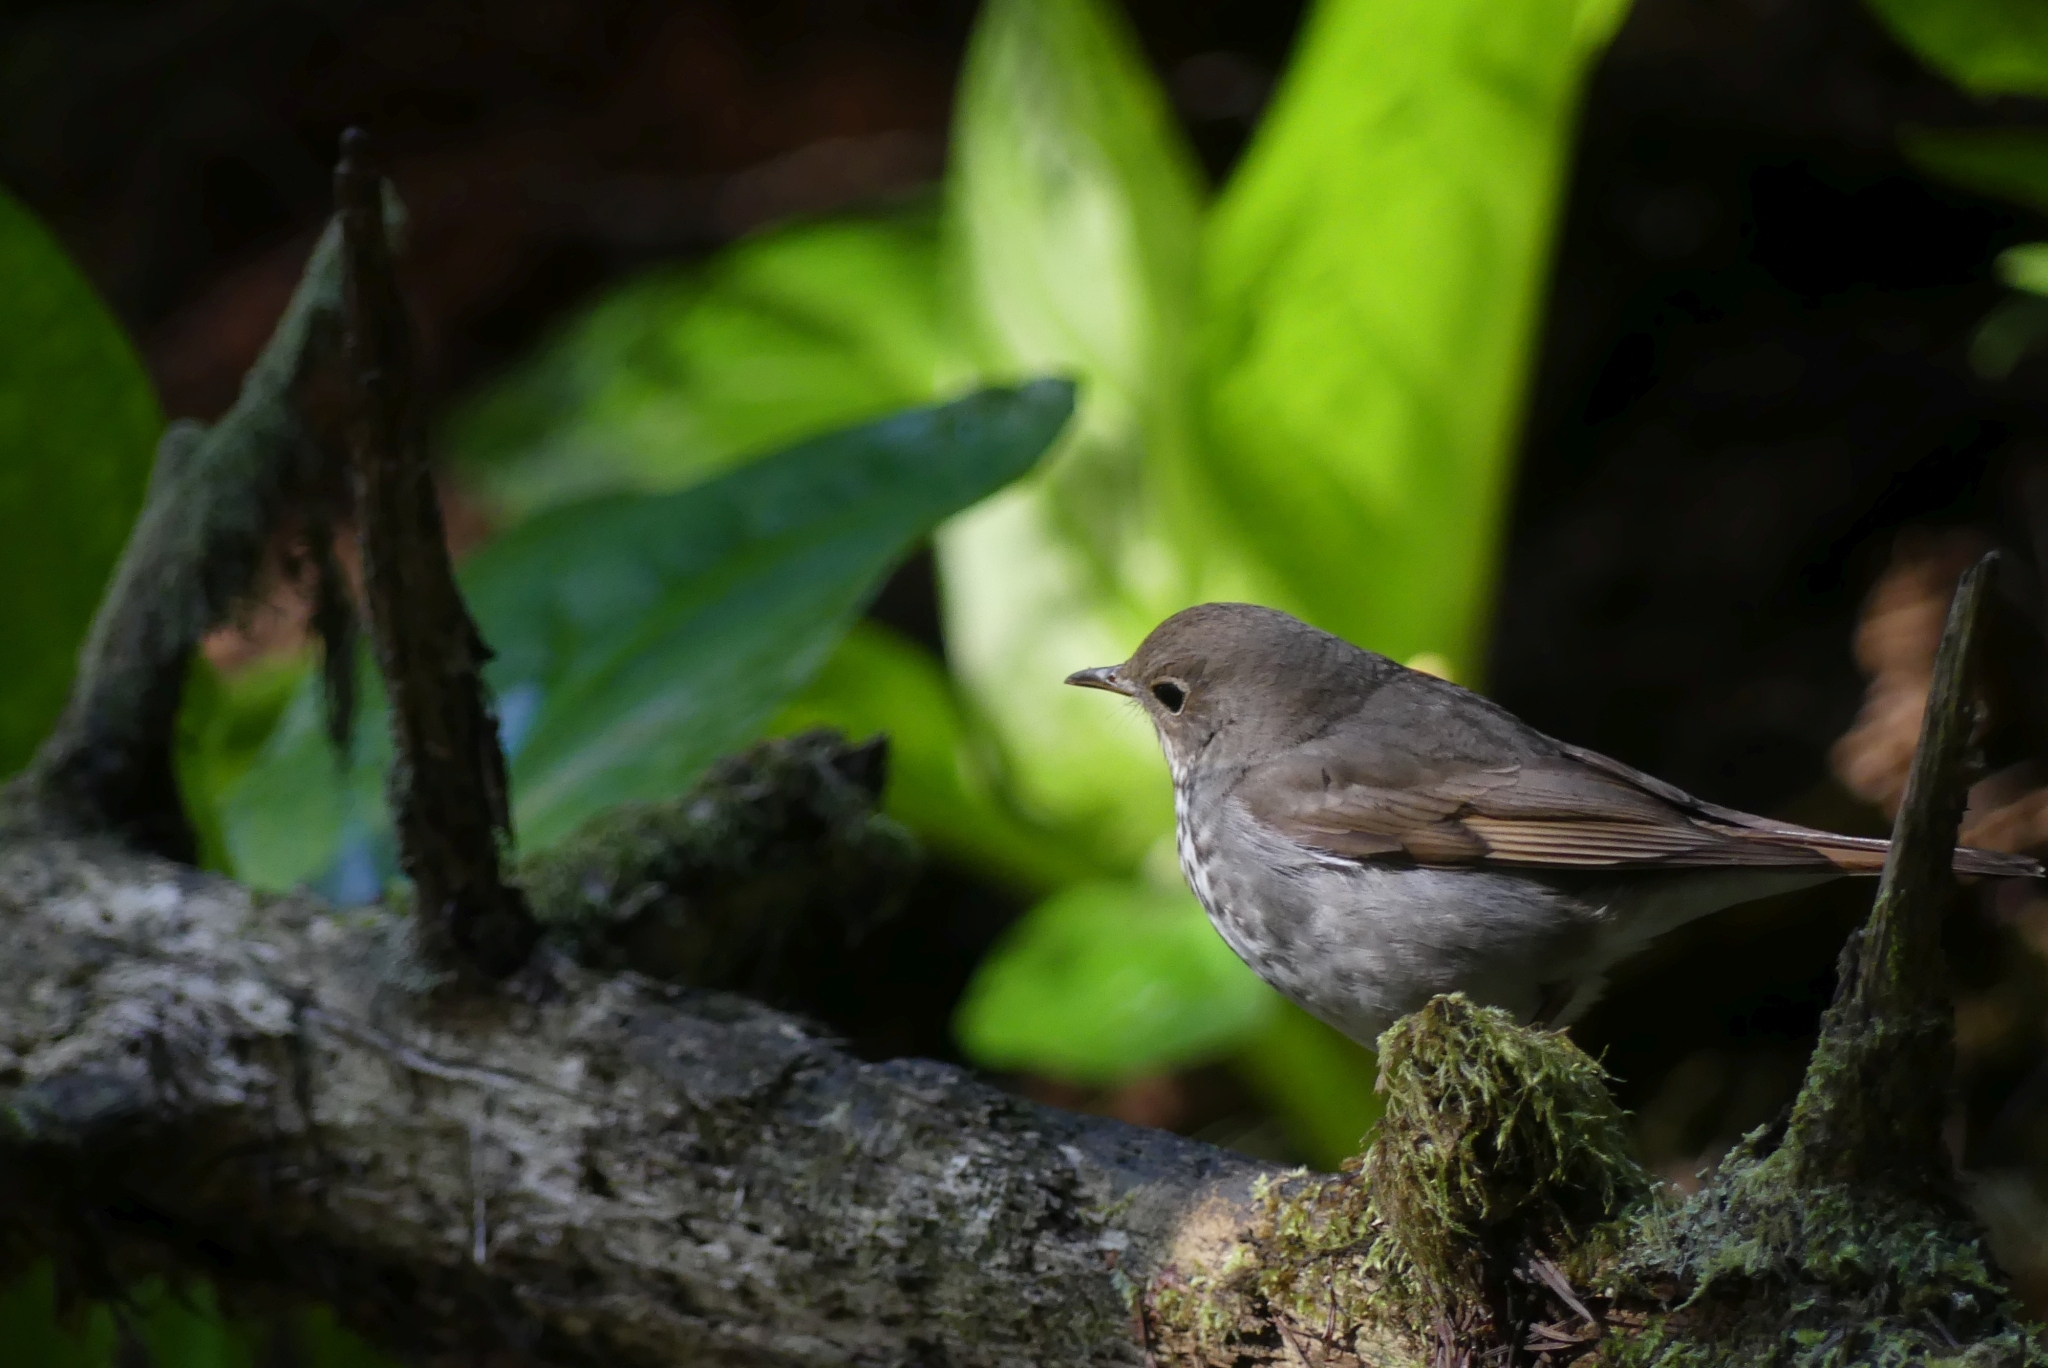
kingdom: Animalia
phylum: Chordata
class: Aves
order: Passeriformes
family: Turdidae
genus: Catharus
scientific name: Catharus guttatus
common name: Hermit thrush
